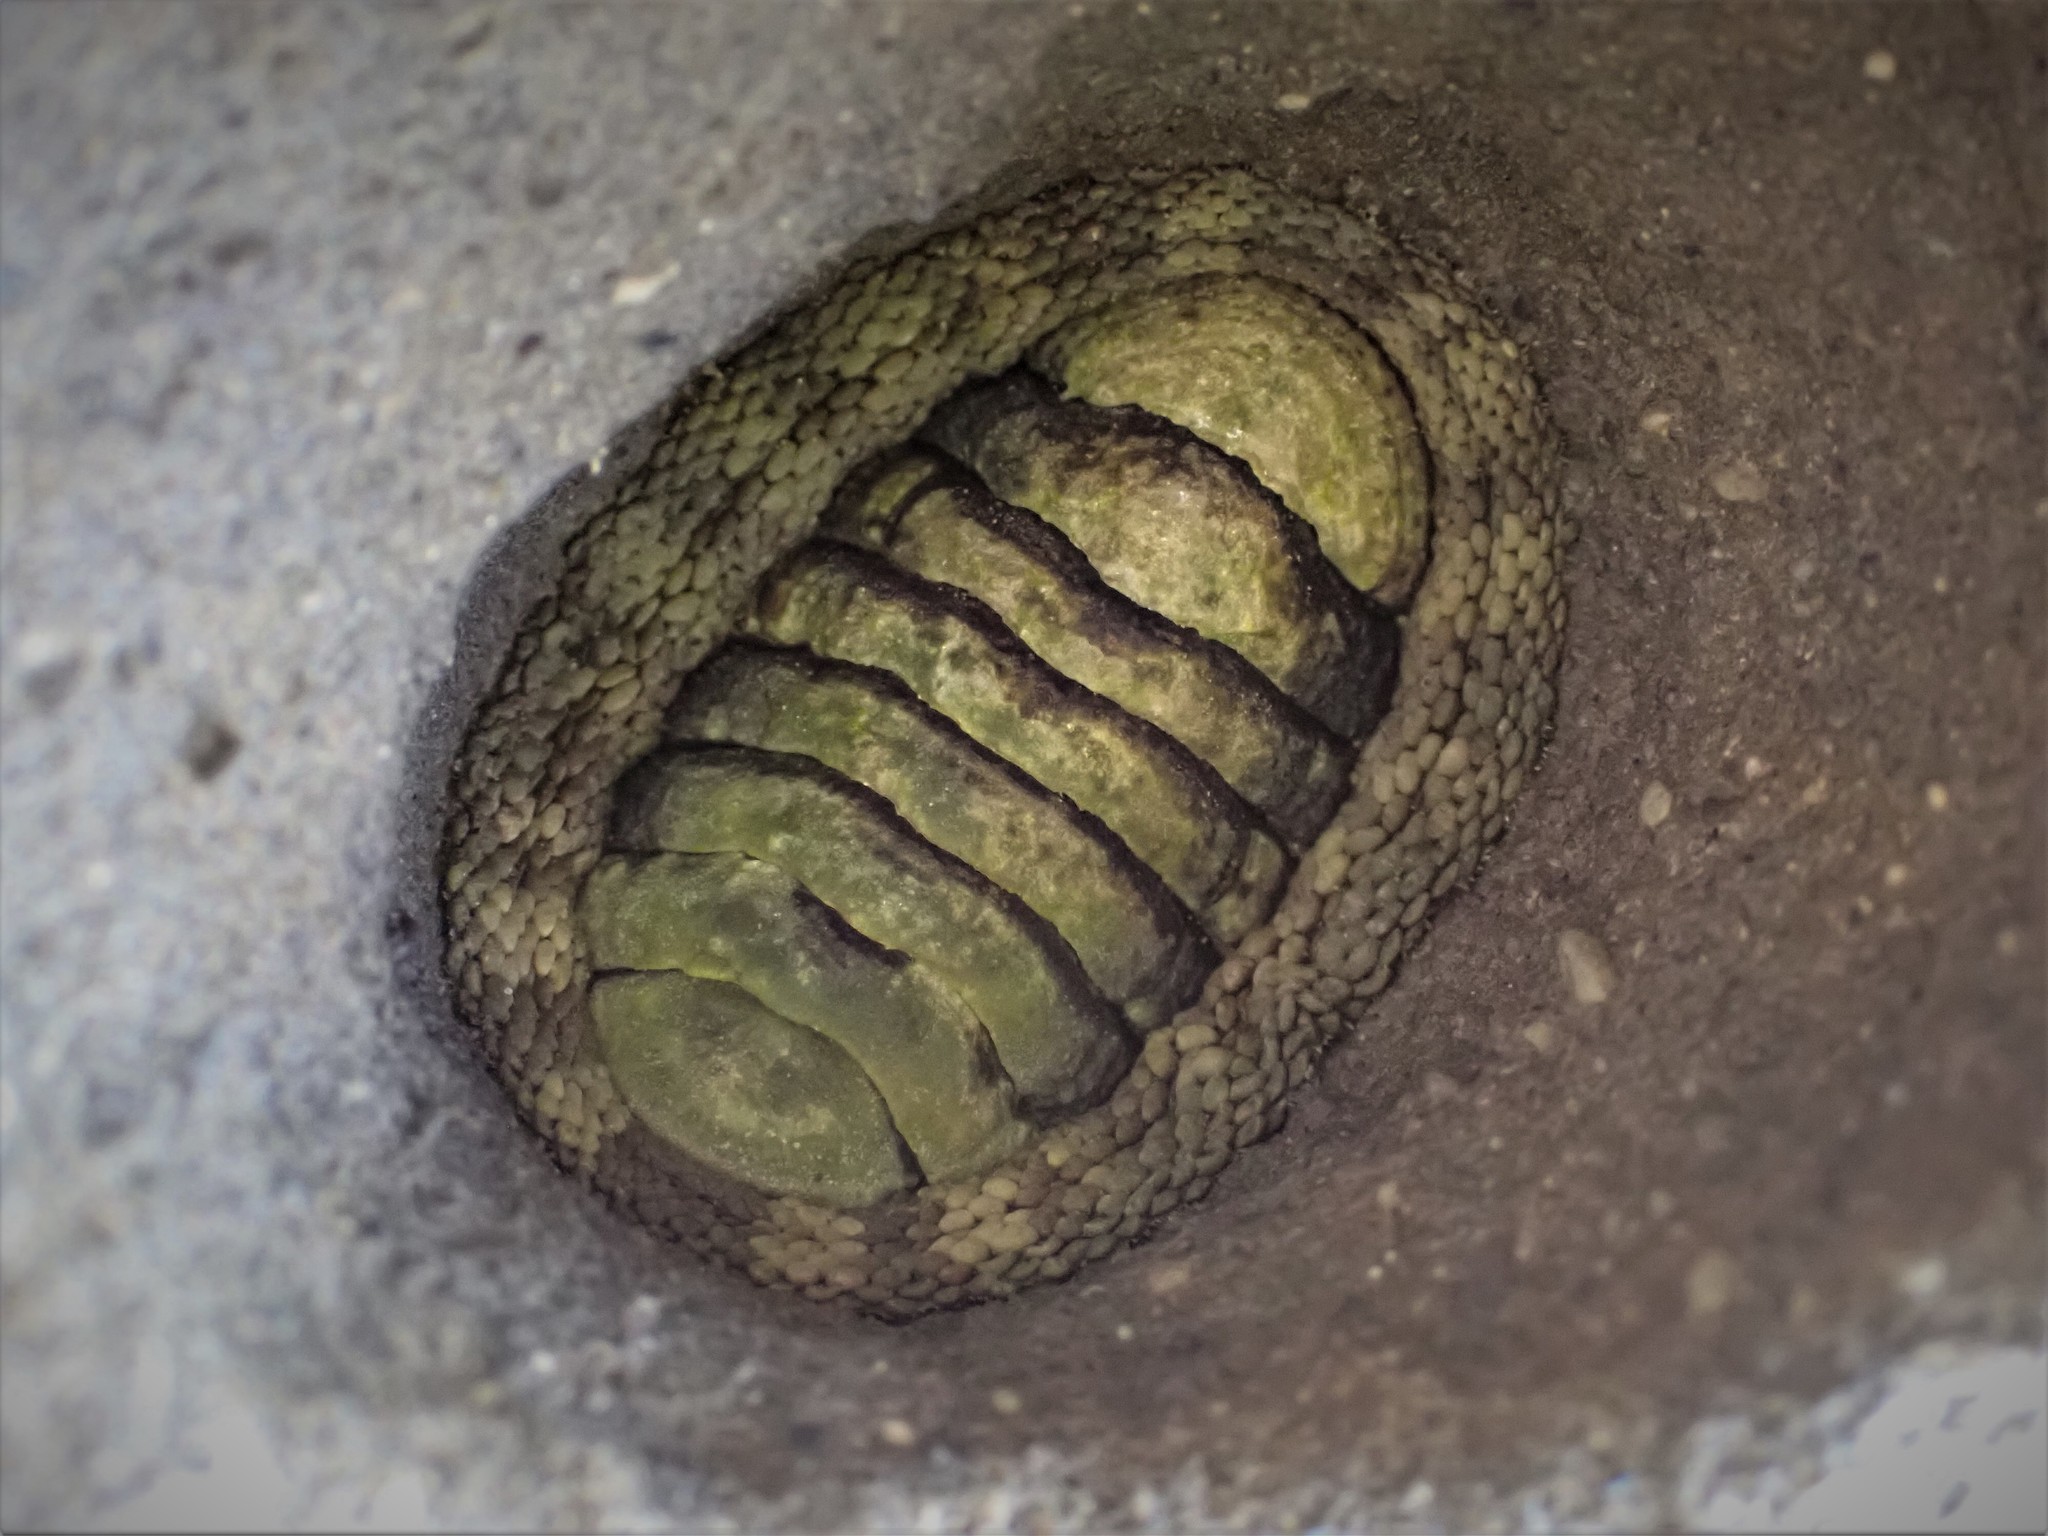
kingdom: Animalia
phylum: Mollusca
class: Polyplacophora
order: Chitonida
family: Chitonidae
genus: Sypharochiton
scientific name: Sypharochiton pelliserpentis
